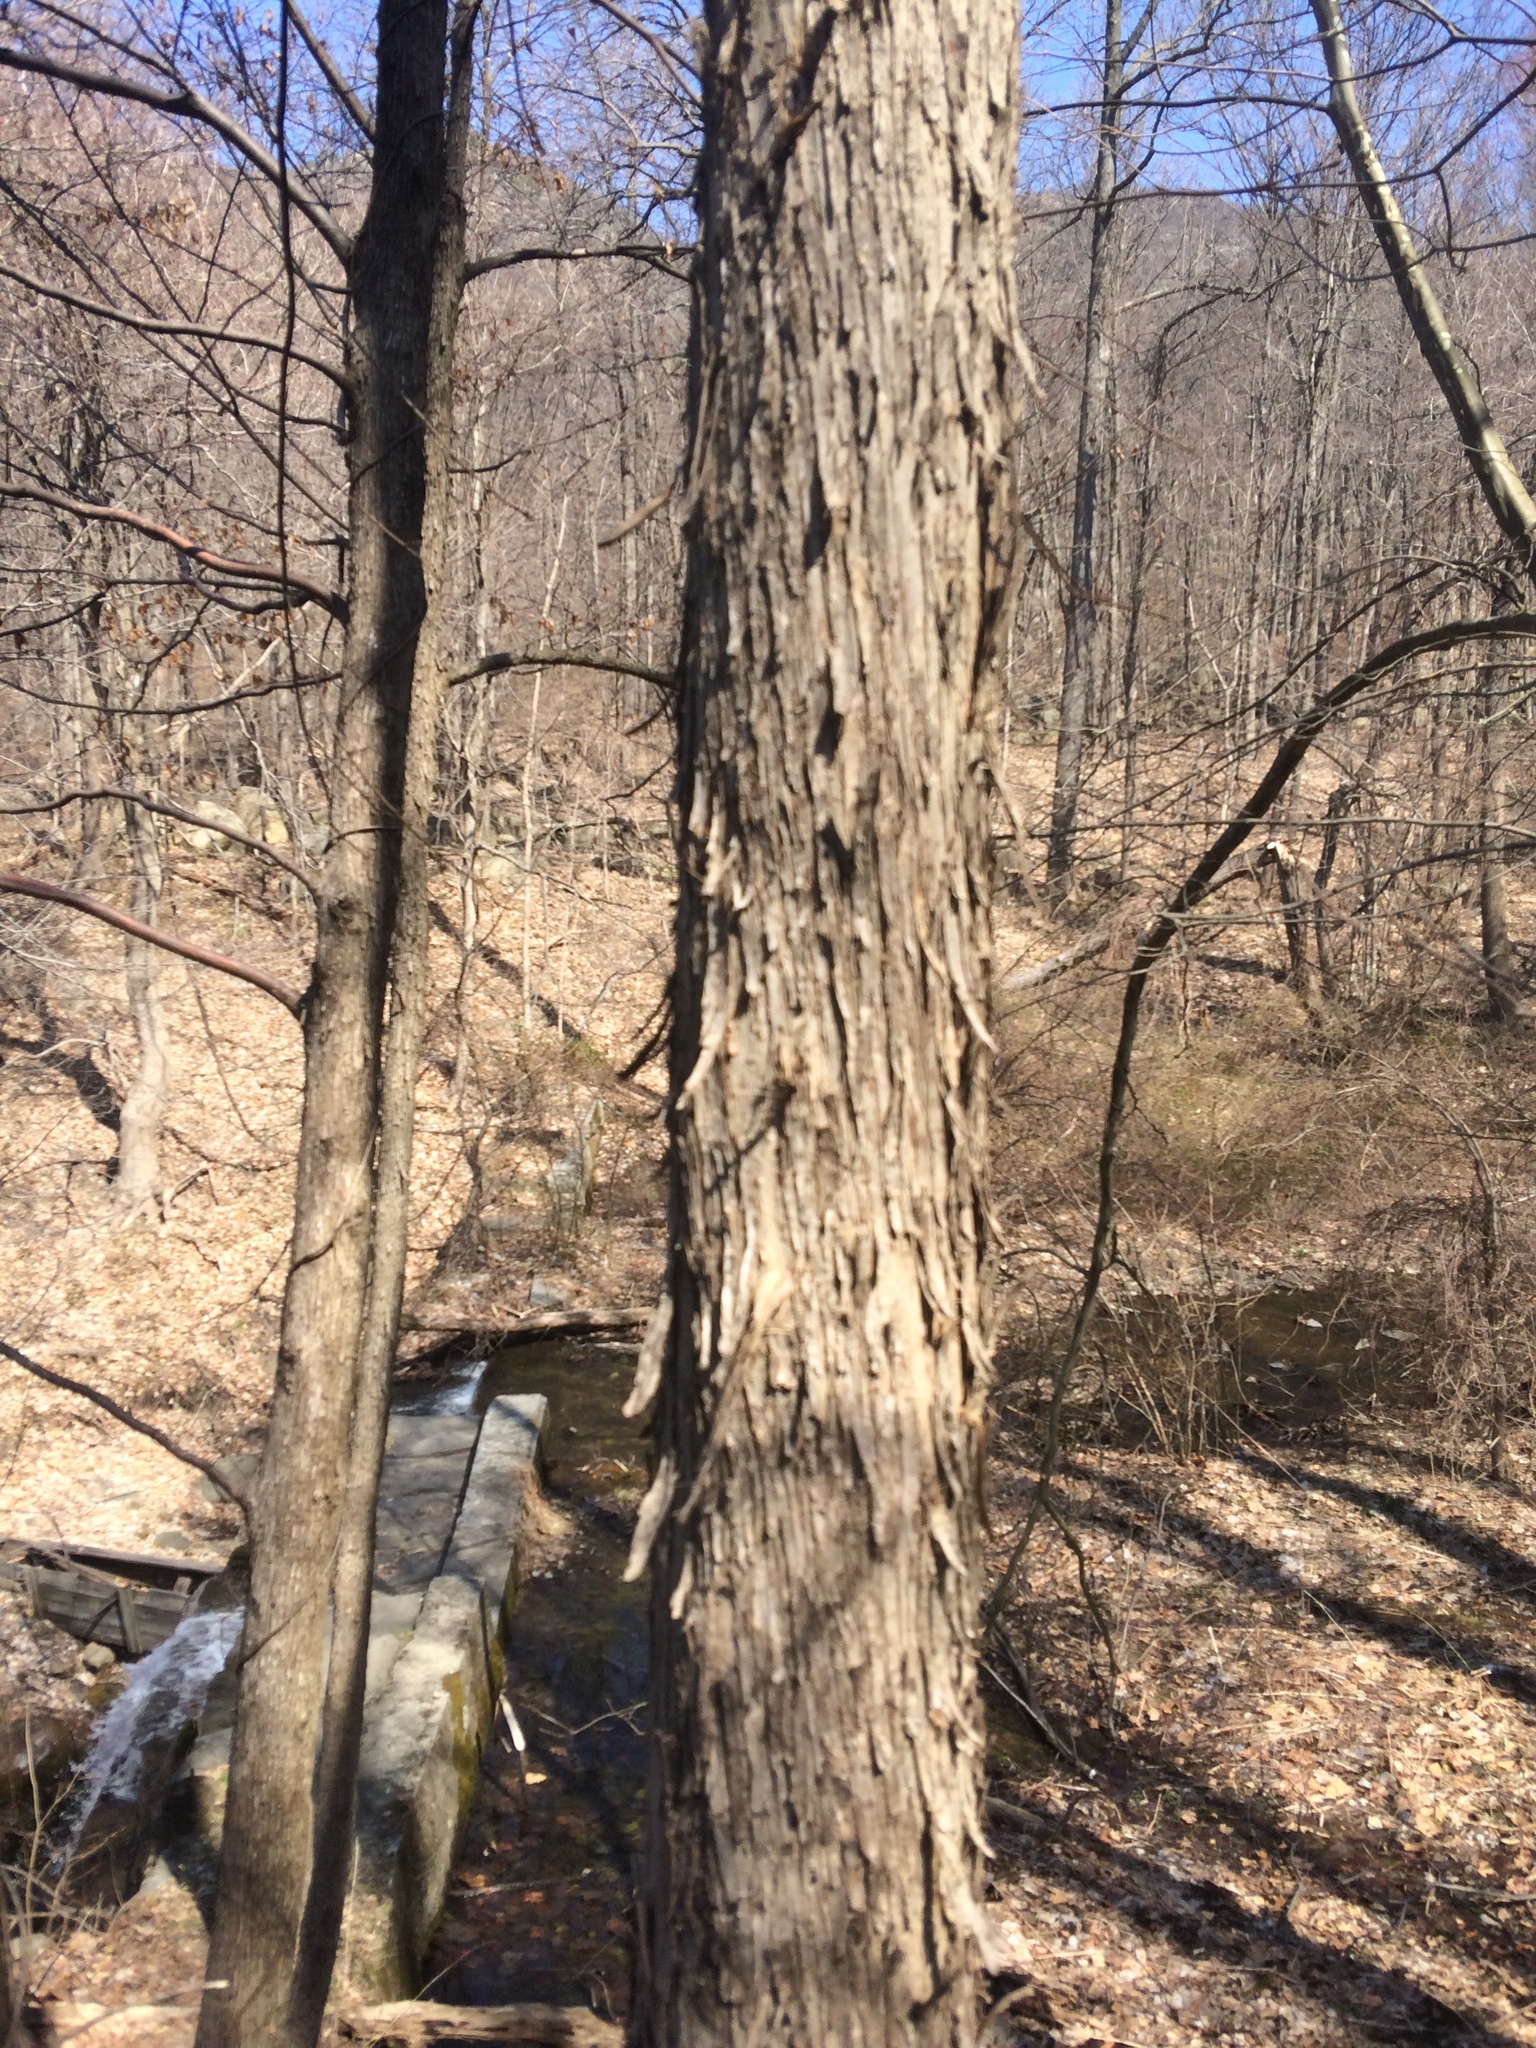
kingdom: Plantae
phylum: Tracheophyta
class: Magnoliopsida
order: Fagales
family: Betulaceae
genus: Ostrya
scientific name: Ostrya virginiana
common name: Ironwood
